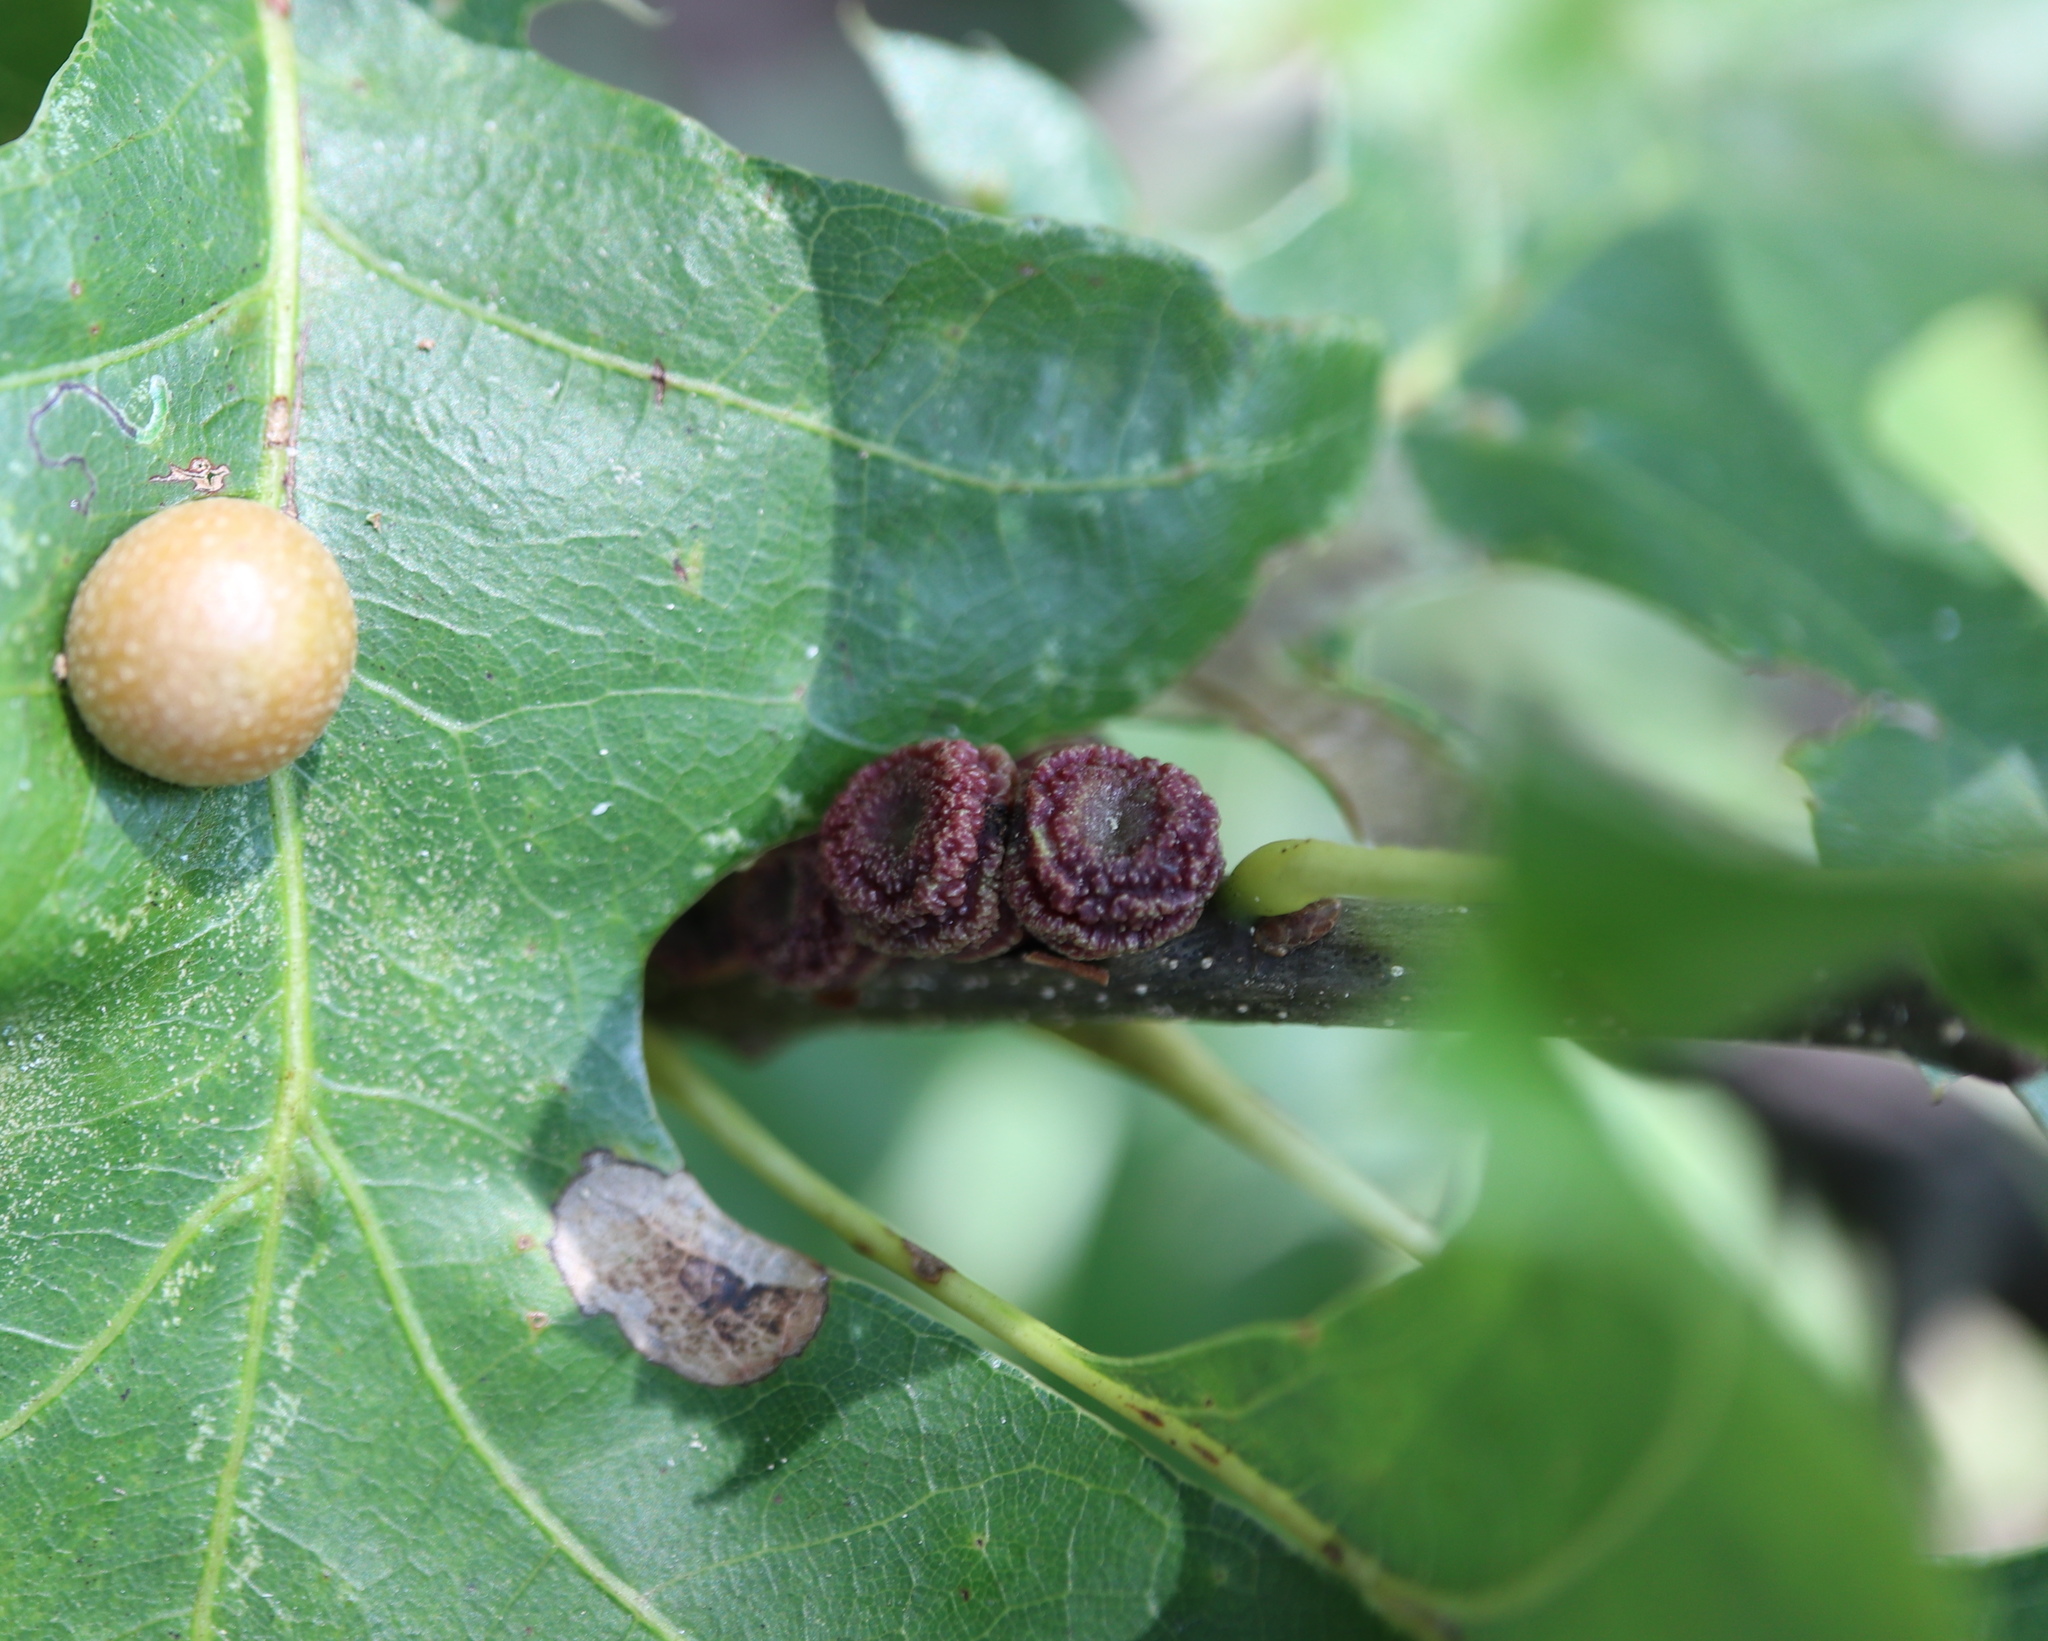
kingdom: Animalia
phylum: Arthropoda
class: Insecta
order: Hymenoptera
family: Cynipidae
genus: Kokkocynips
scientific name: Kokkocynips difficilis
